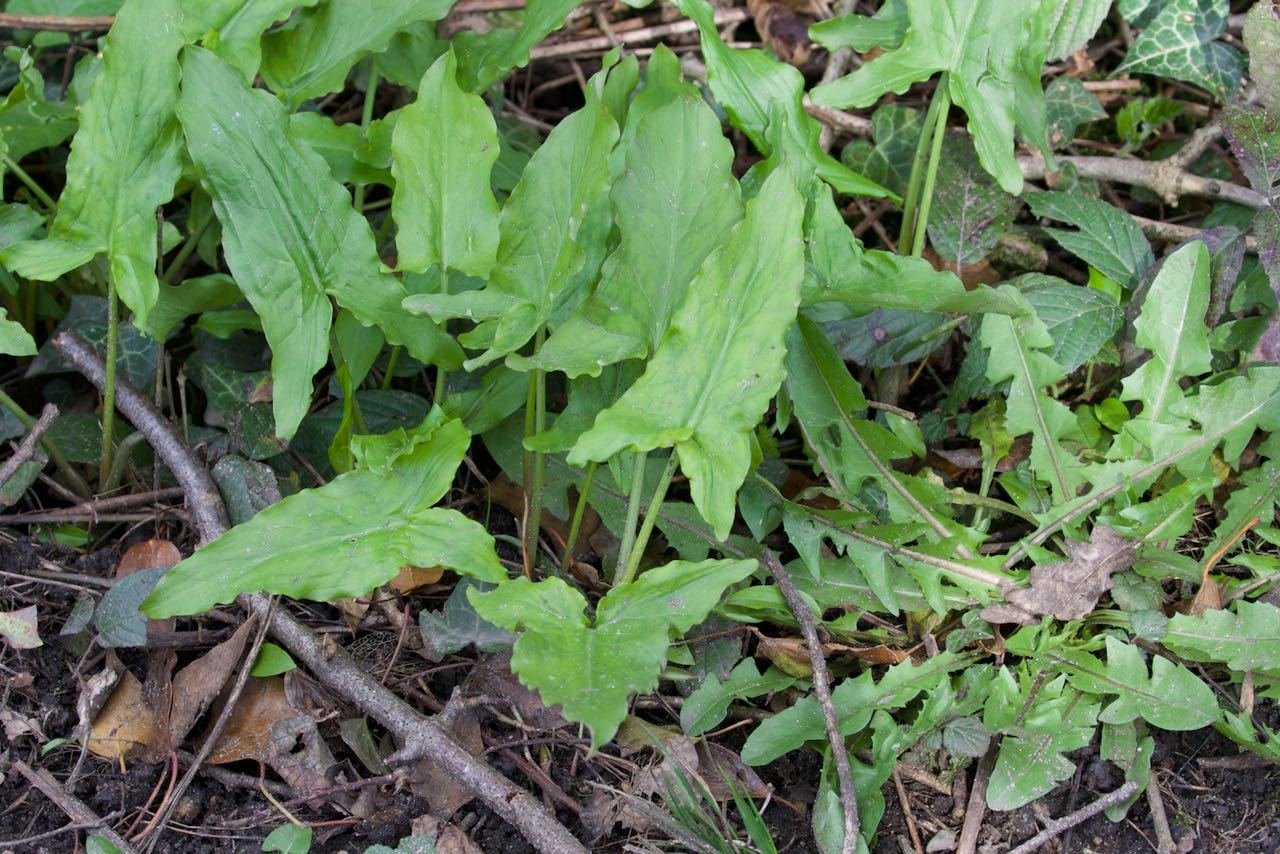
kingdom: Plantae
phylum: Tracheophyta
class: Liliopsida
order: Alismatales
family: Araceae
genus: Arum
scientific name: Arum maculatum
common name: Lords-and-ladies
